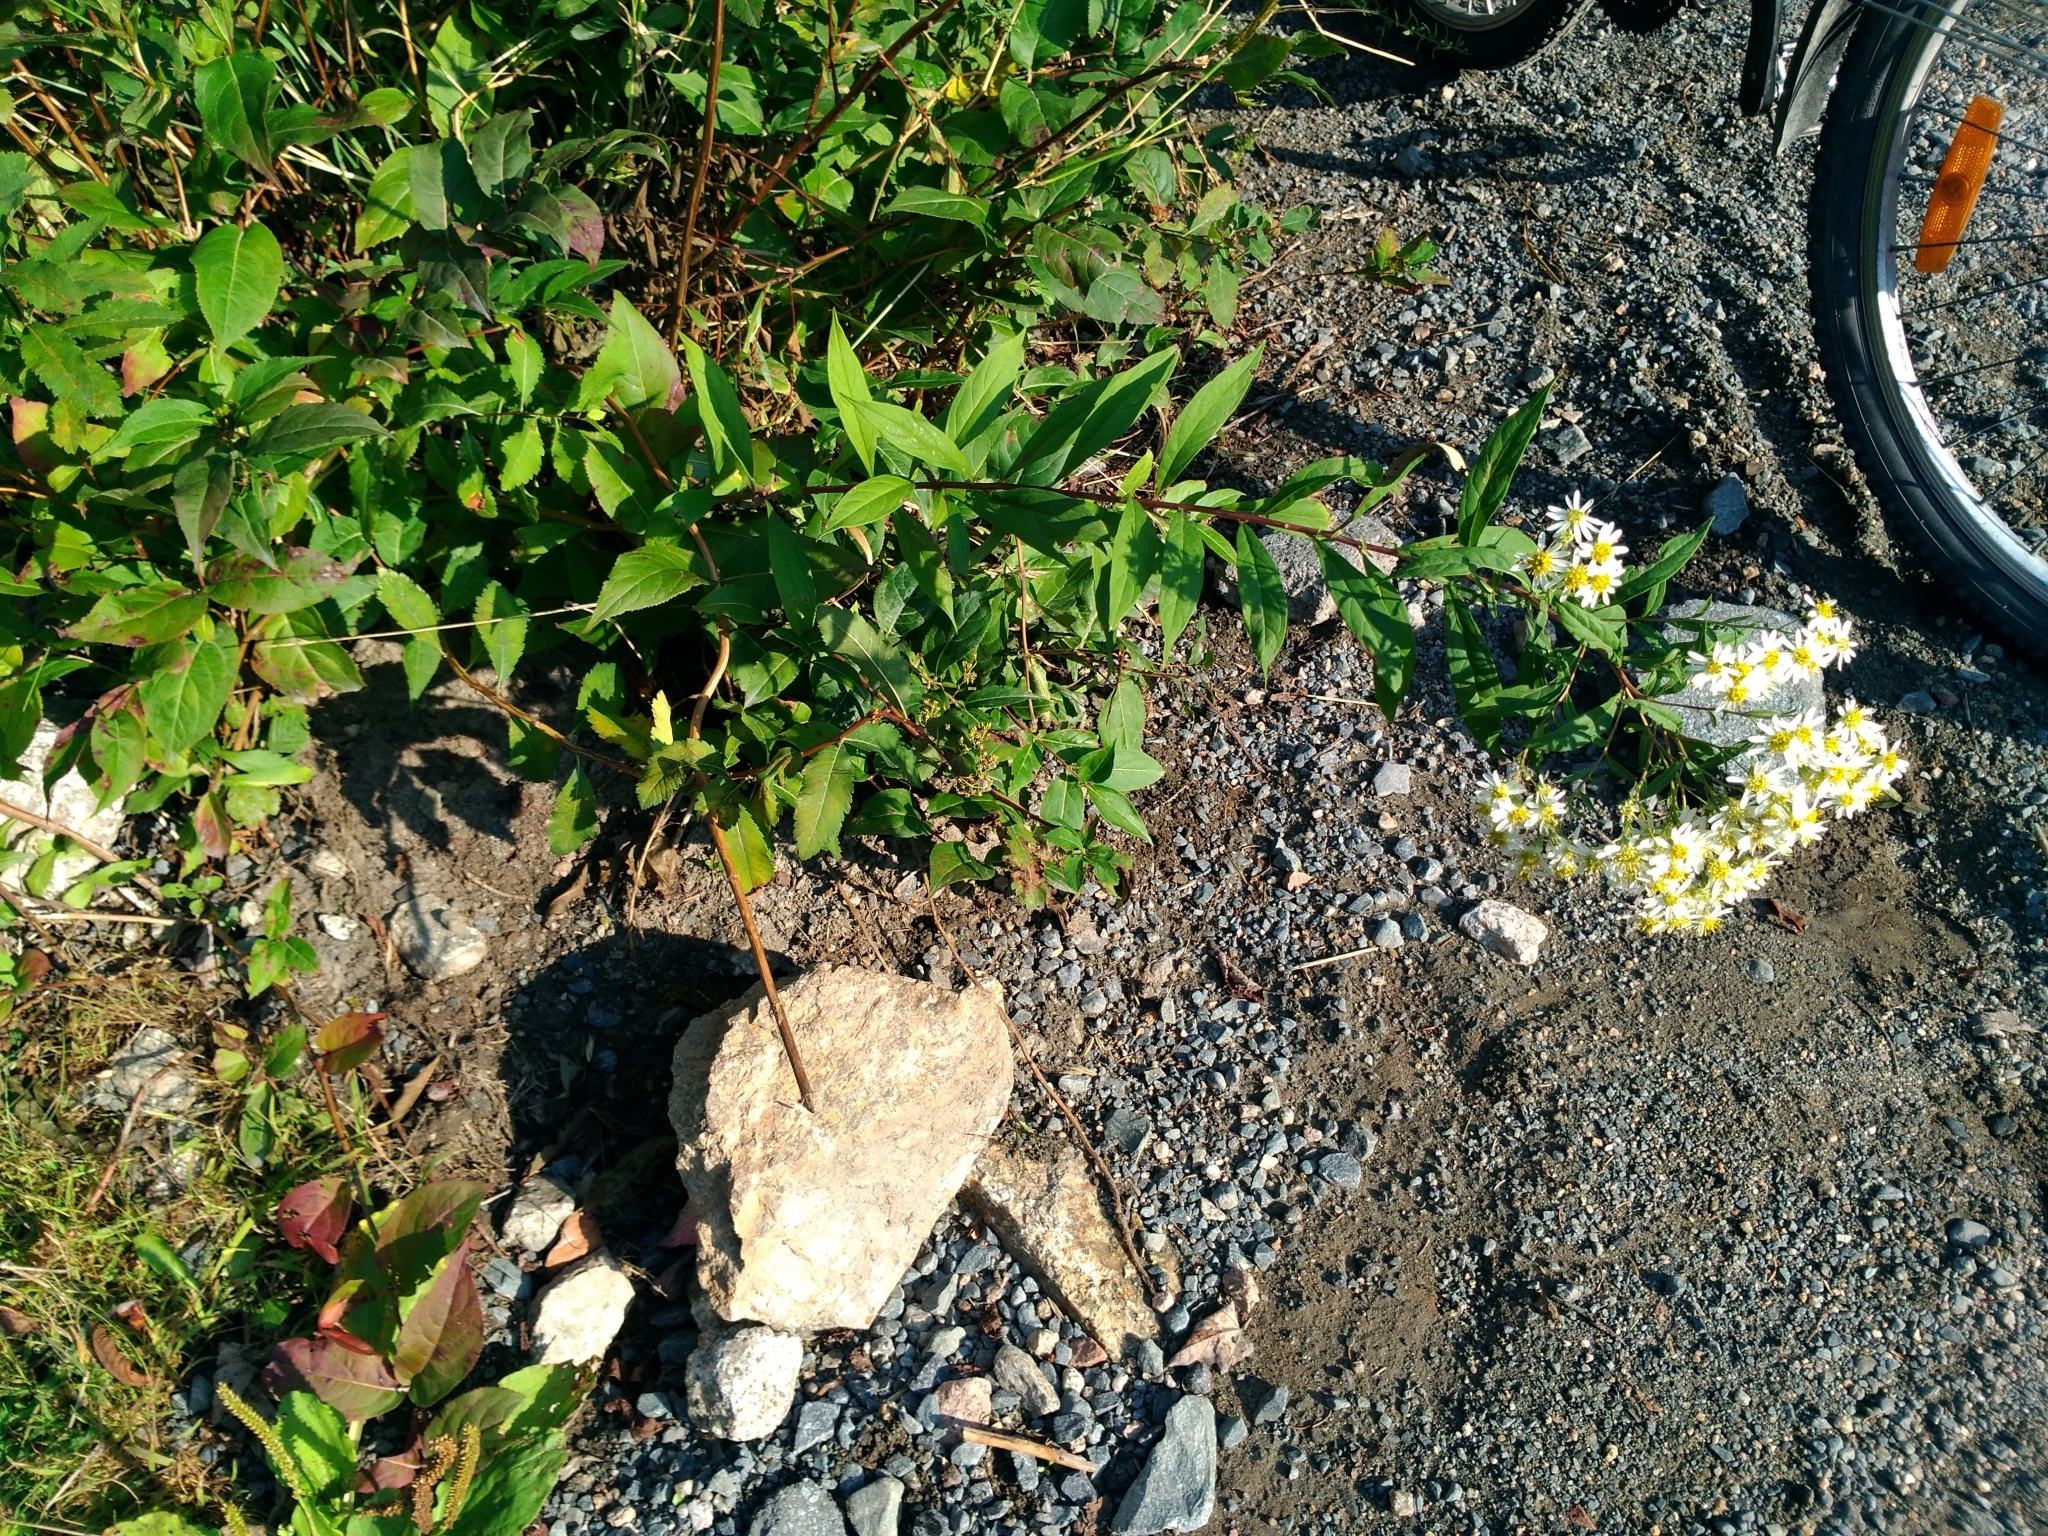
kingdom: Plantae
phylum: Tracheophyta
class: Magnoliopsida
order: Asterales
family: Asteraceae
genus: Doellingeria
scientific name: Doellingeria umbellata
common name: Flat-top white aster
